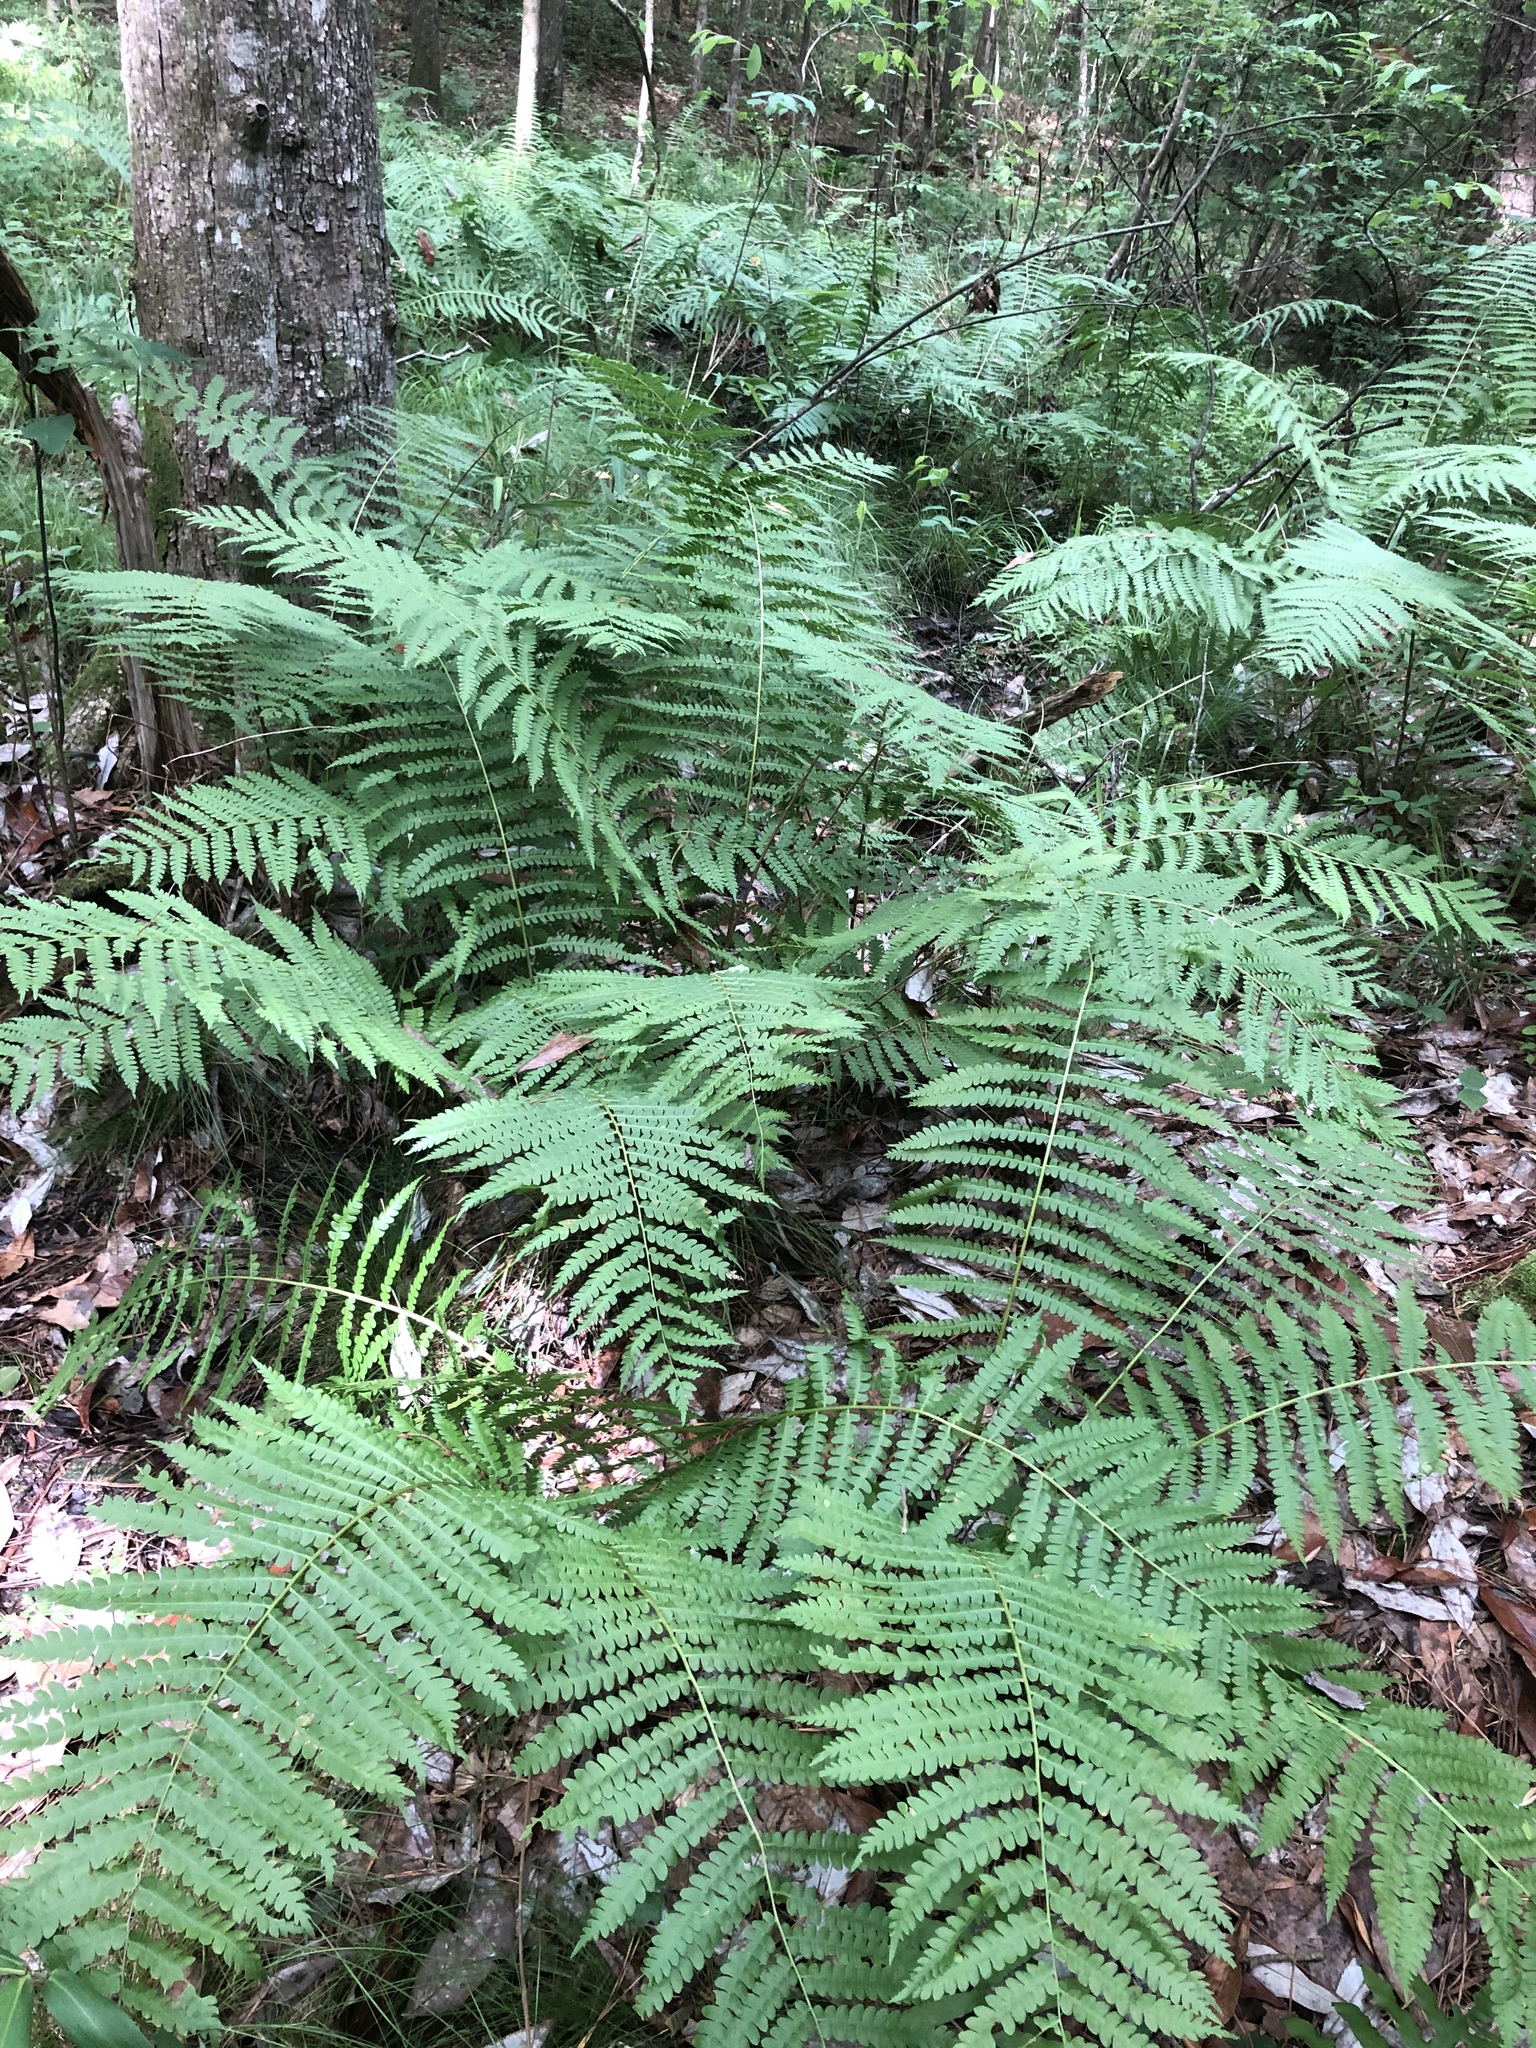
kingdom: Plantae
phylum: Tracheophyta
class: Polypodiopsida
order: Osmundales
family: Osmundaceae
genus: Osmundastrum
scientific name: Osmundastrum cinnamomeum
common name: Cinnamon fern
